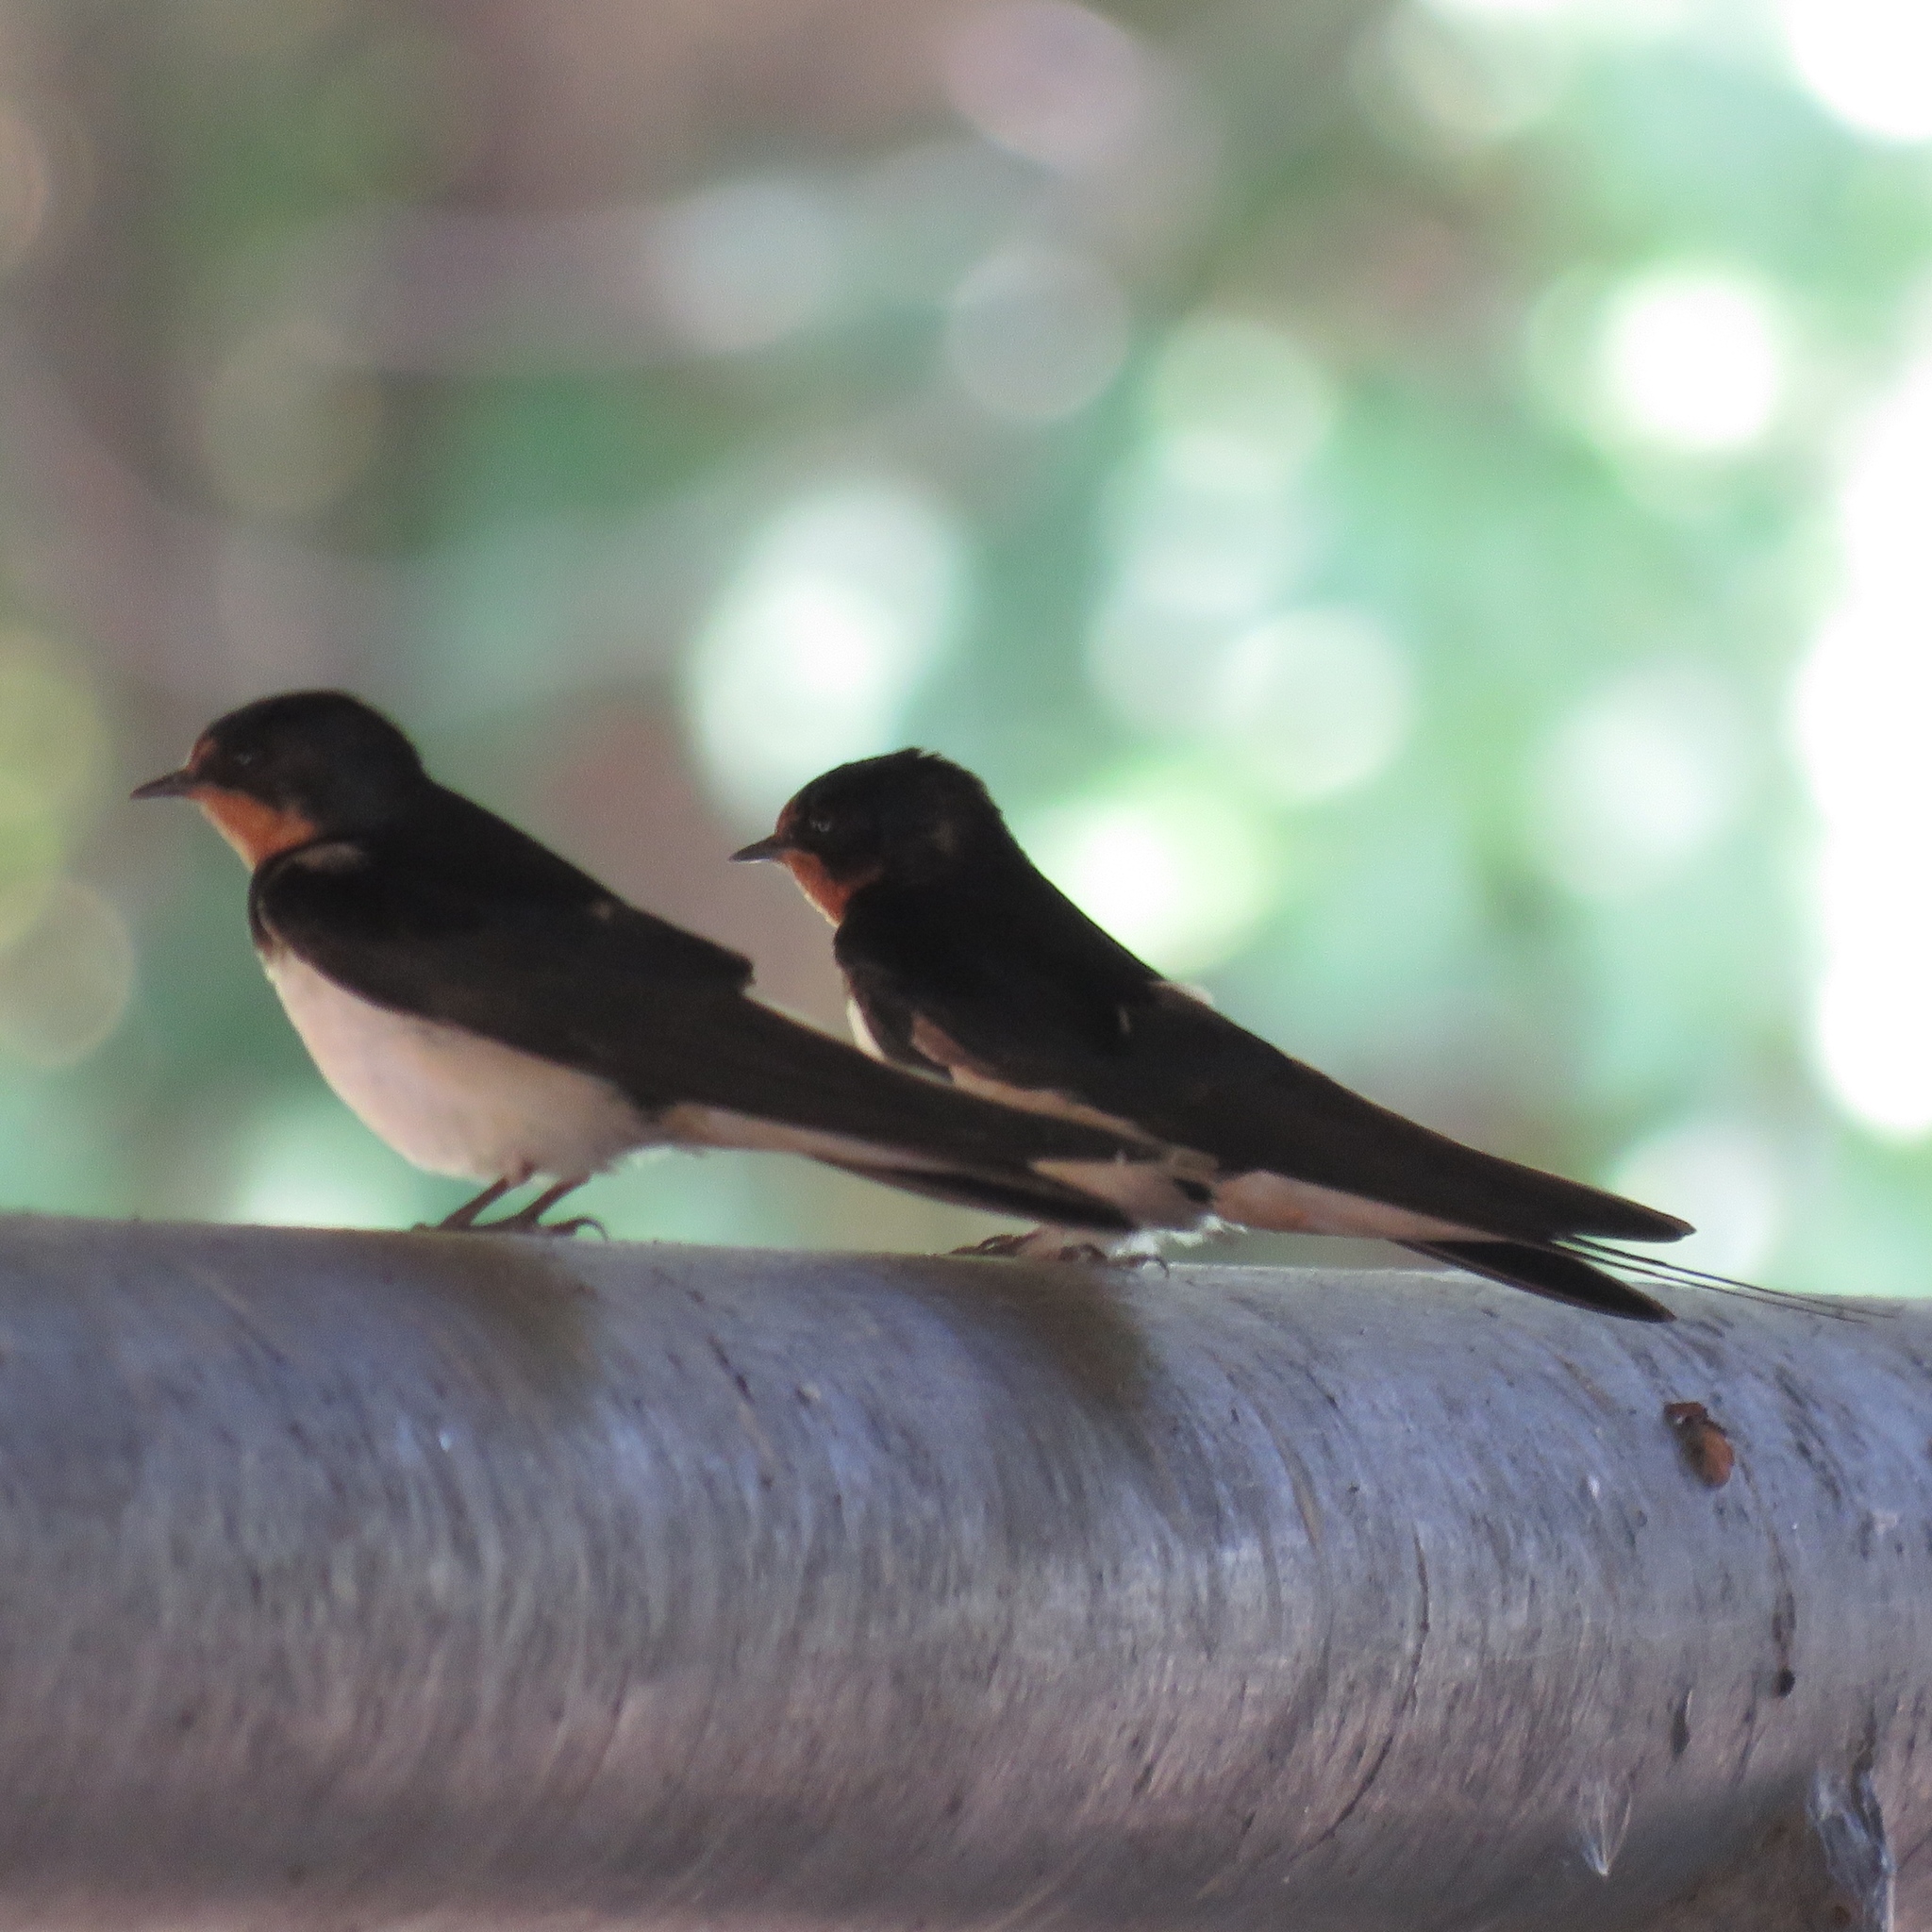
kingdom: Animalia
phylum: Chordata
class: Aves
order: Passeriformes
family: Hirundinidae
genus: Hirundo
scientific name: Hirundo rustica
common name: Barn swallow
